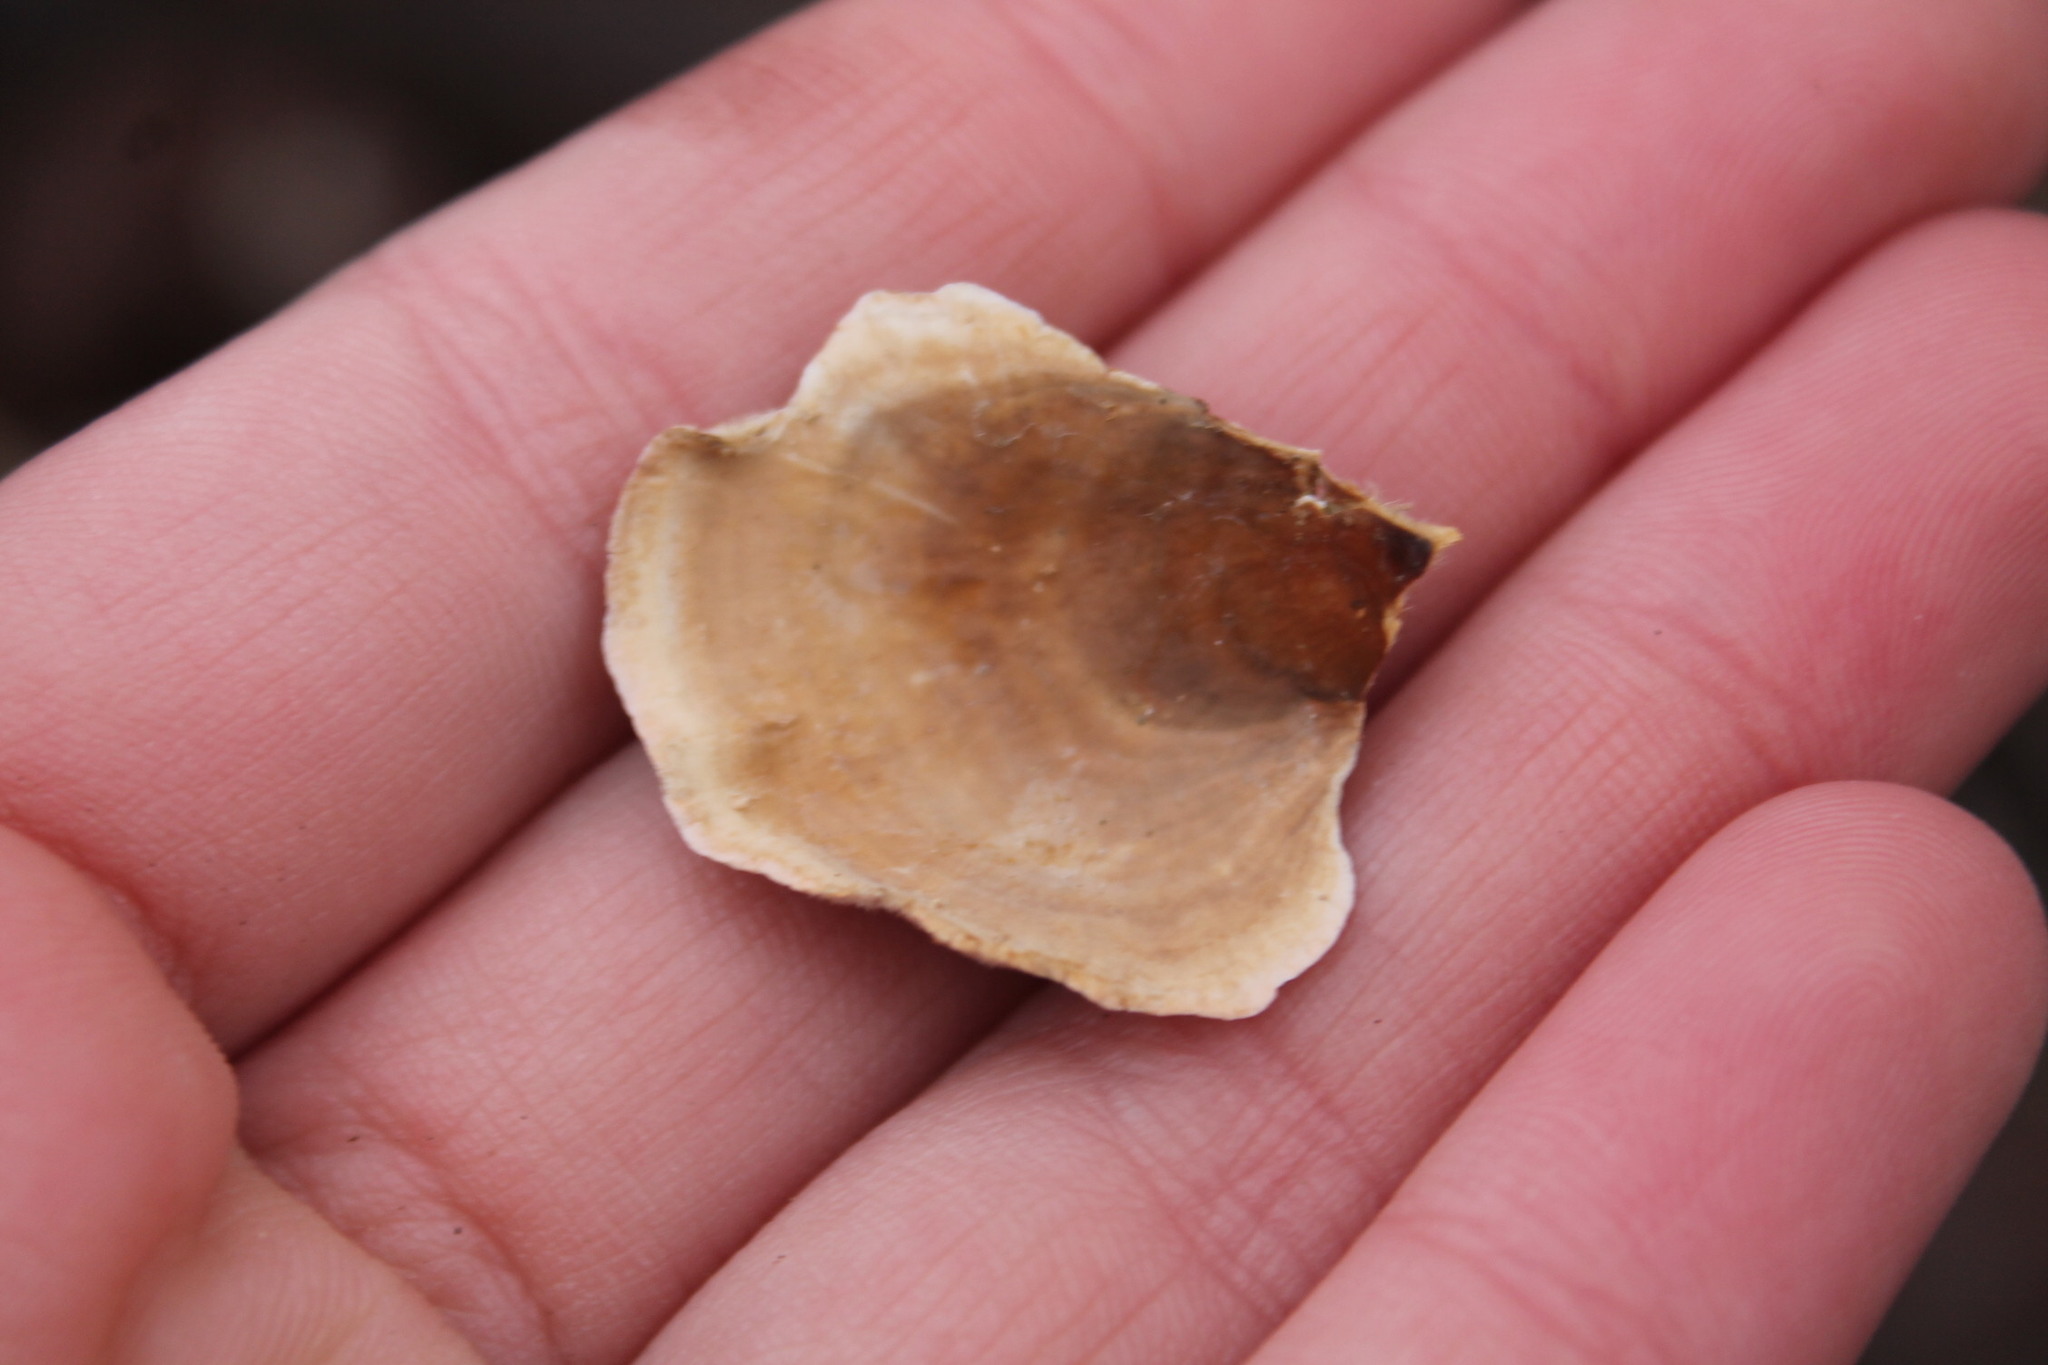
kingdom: Fungi
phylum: Basidiomycota
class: Agaricomycetes
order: Russulales
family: Stereaceae
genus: Stereum
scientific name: Stereum lobatum
